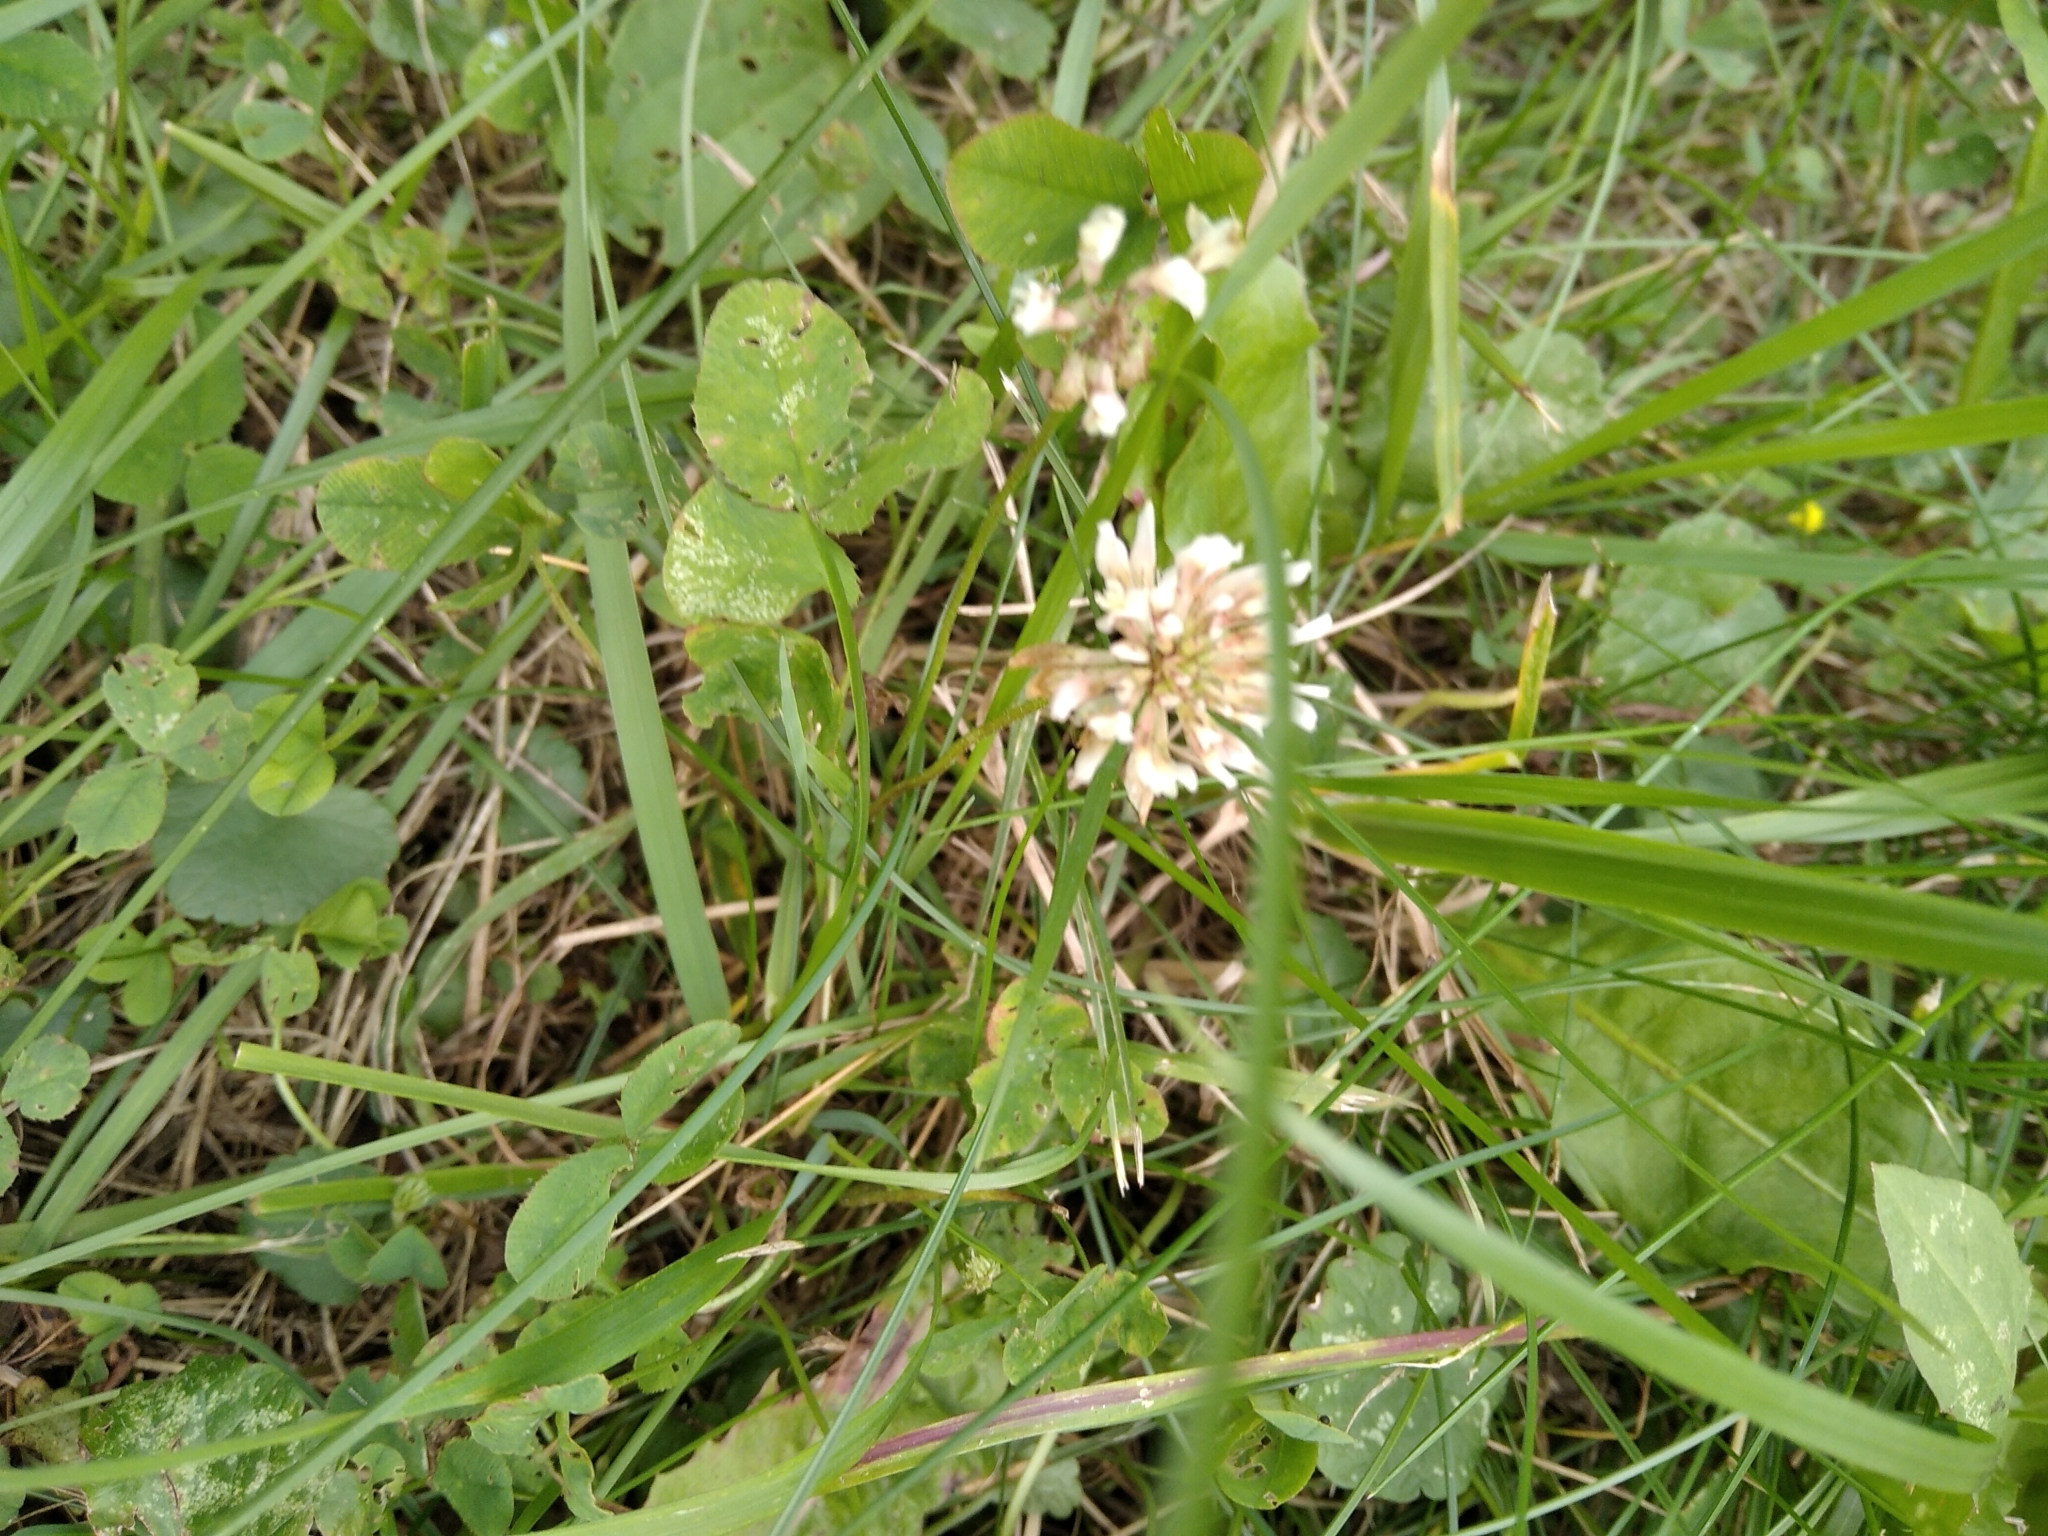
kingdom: Plantae
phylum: Tracheophyta
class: Magnoliopsida
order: Fabales
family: Fabaceae
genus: Trifolium
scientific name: Trifolium repens
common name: White clover
